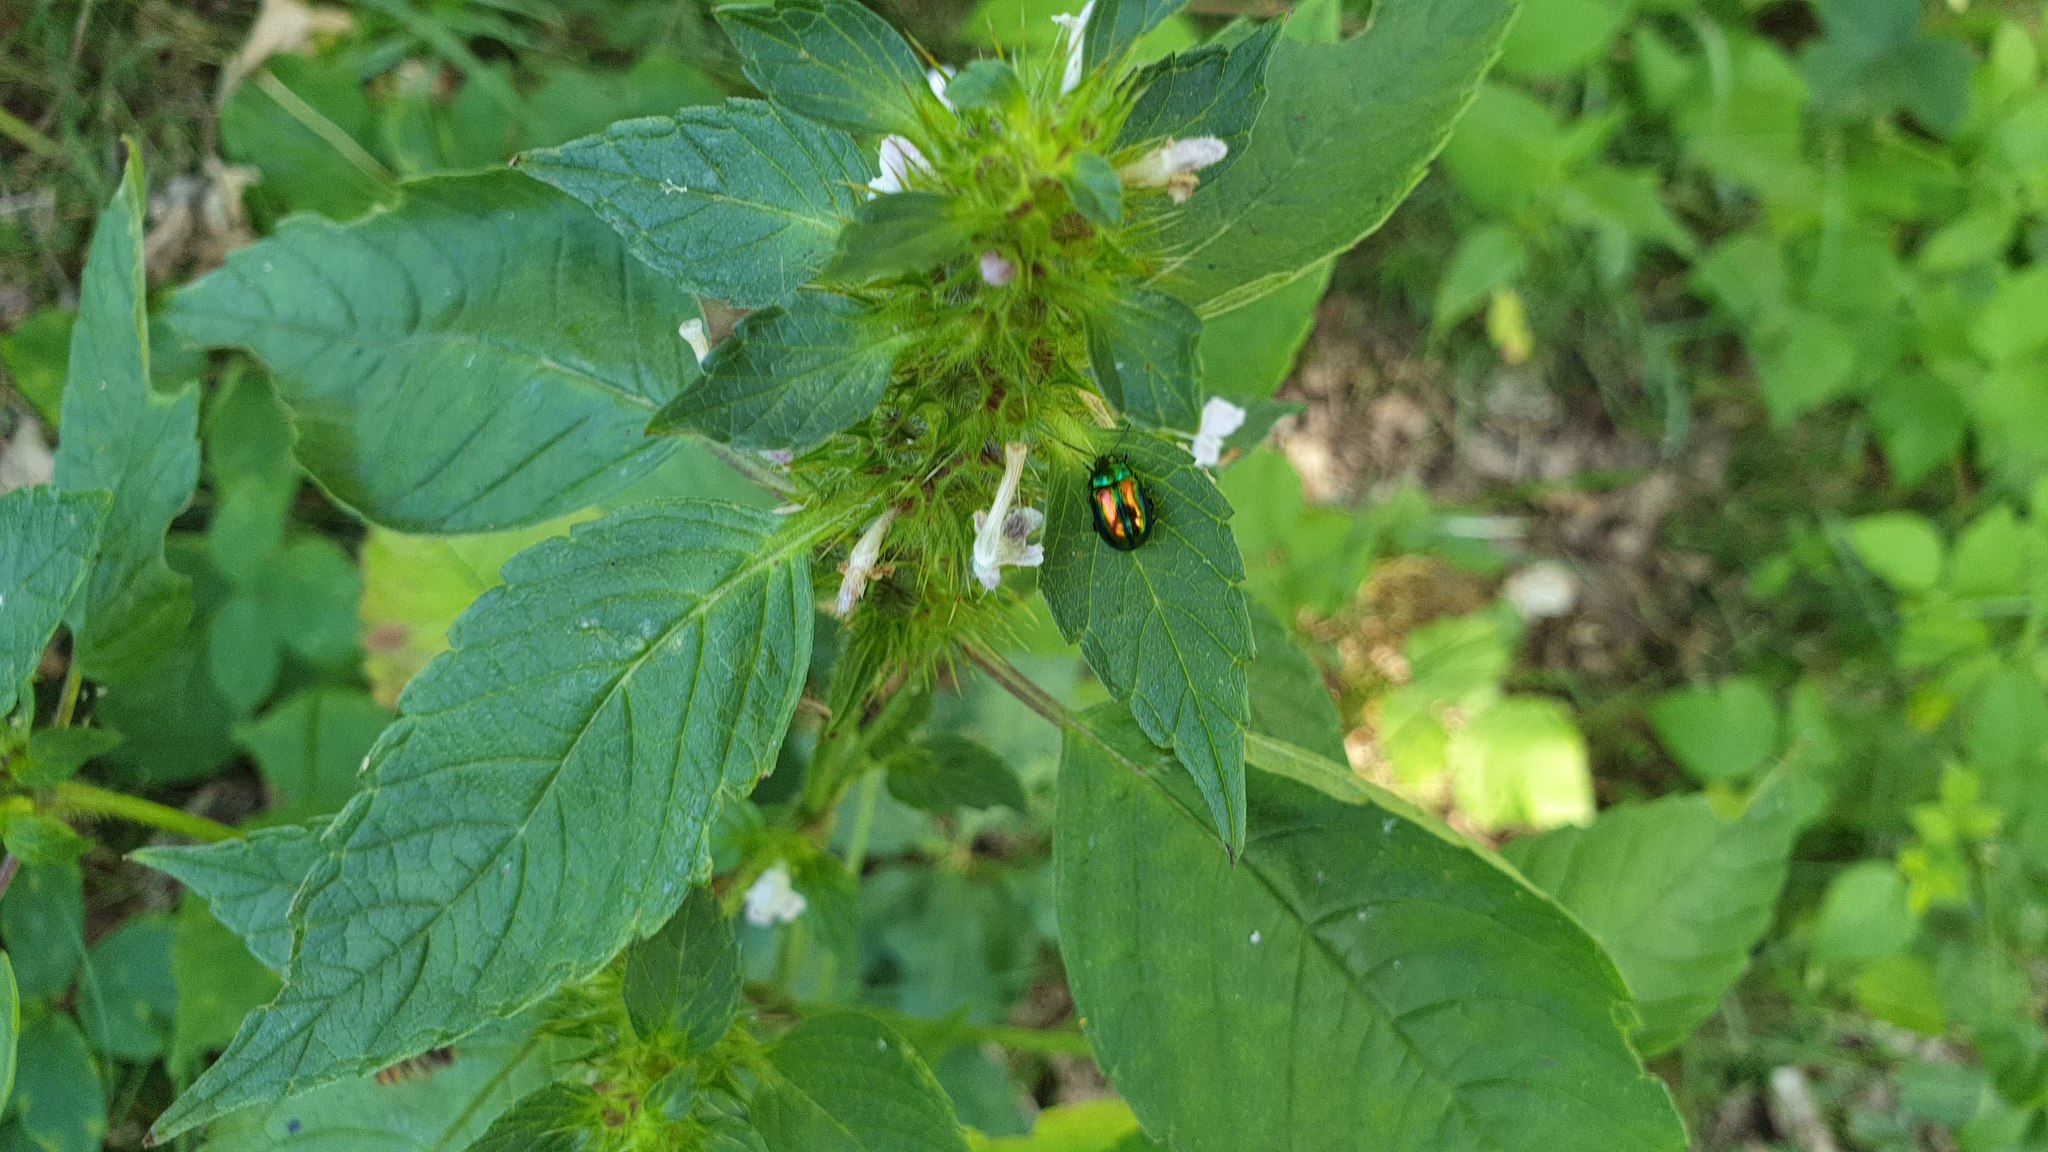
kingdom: Animalia
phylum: Arthropoda
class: Insecta
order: Coleoptera
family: Chrysomelidae
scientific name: Chrysomelidae
